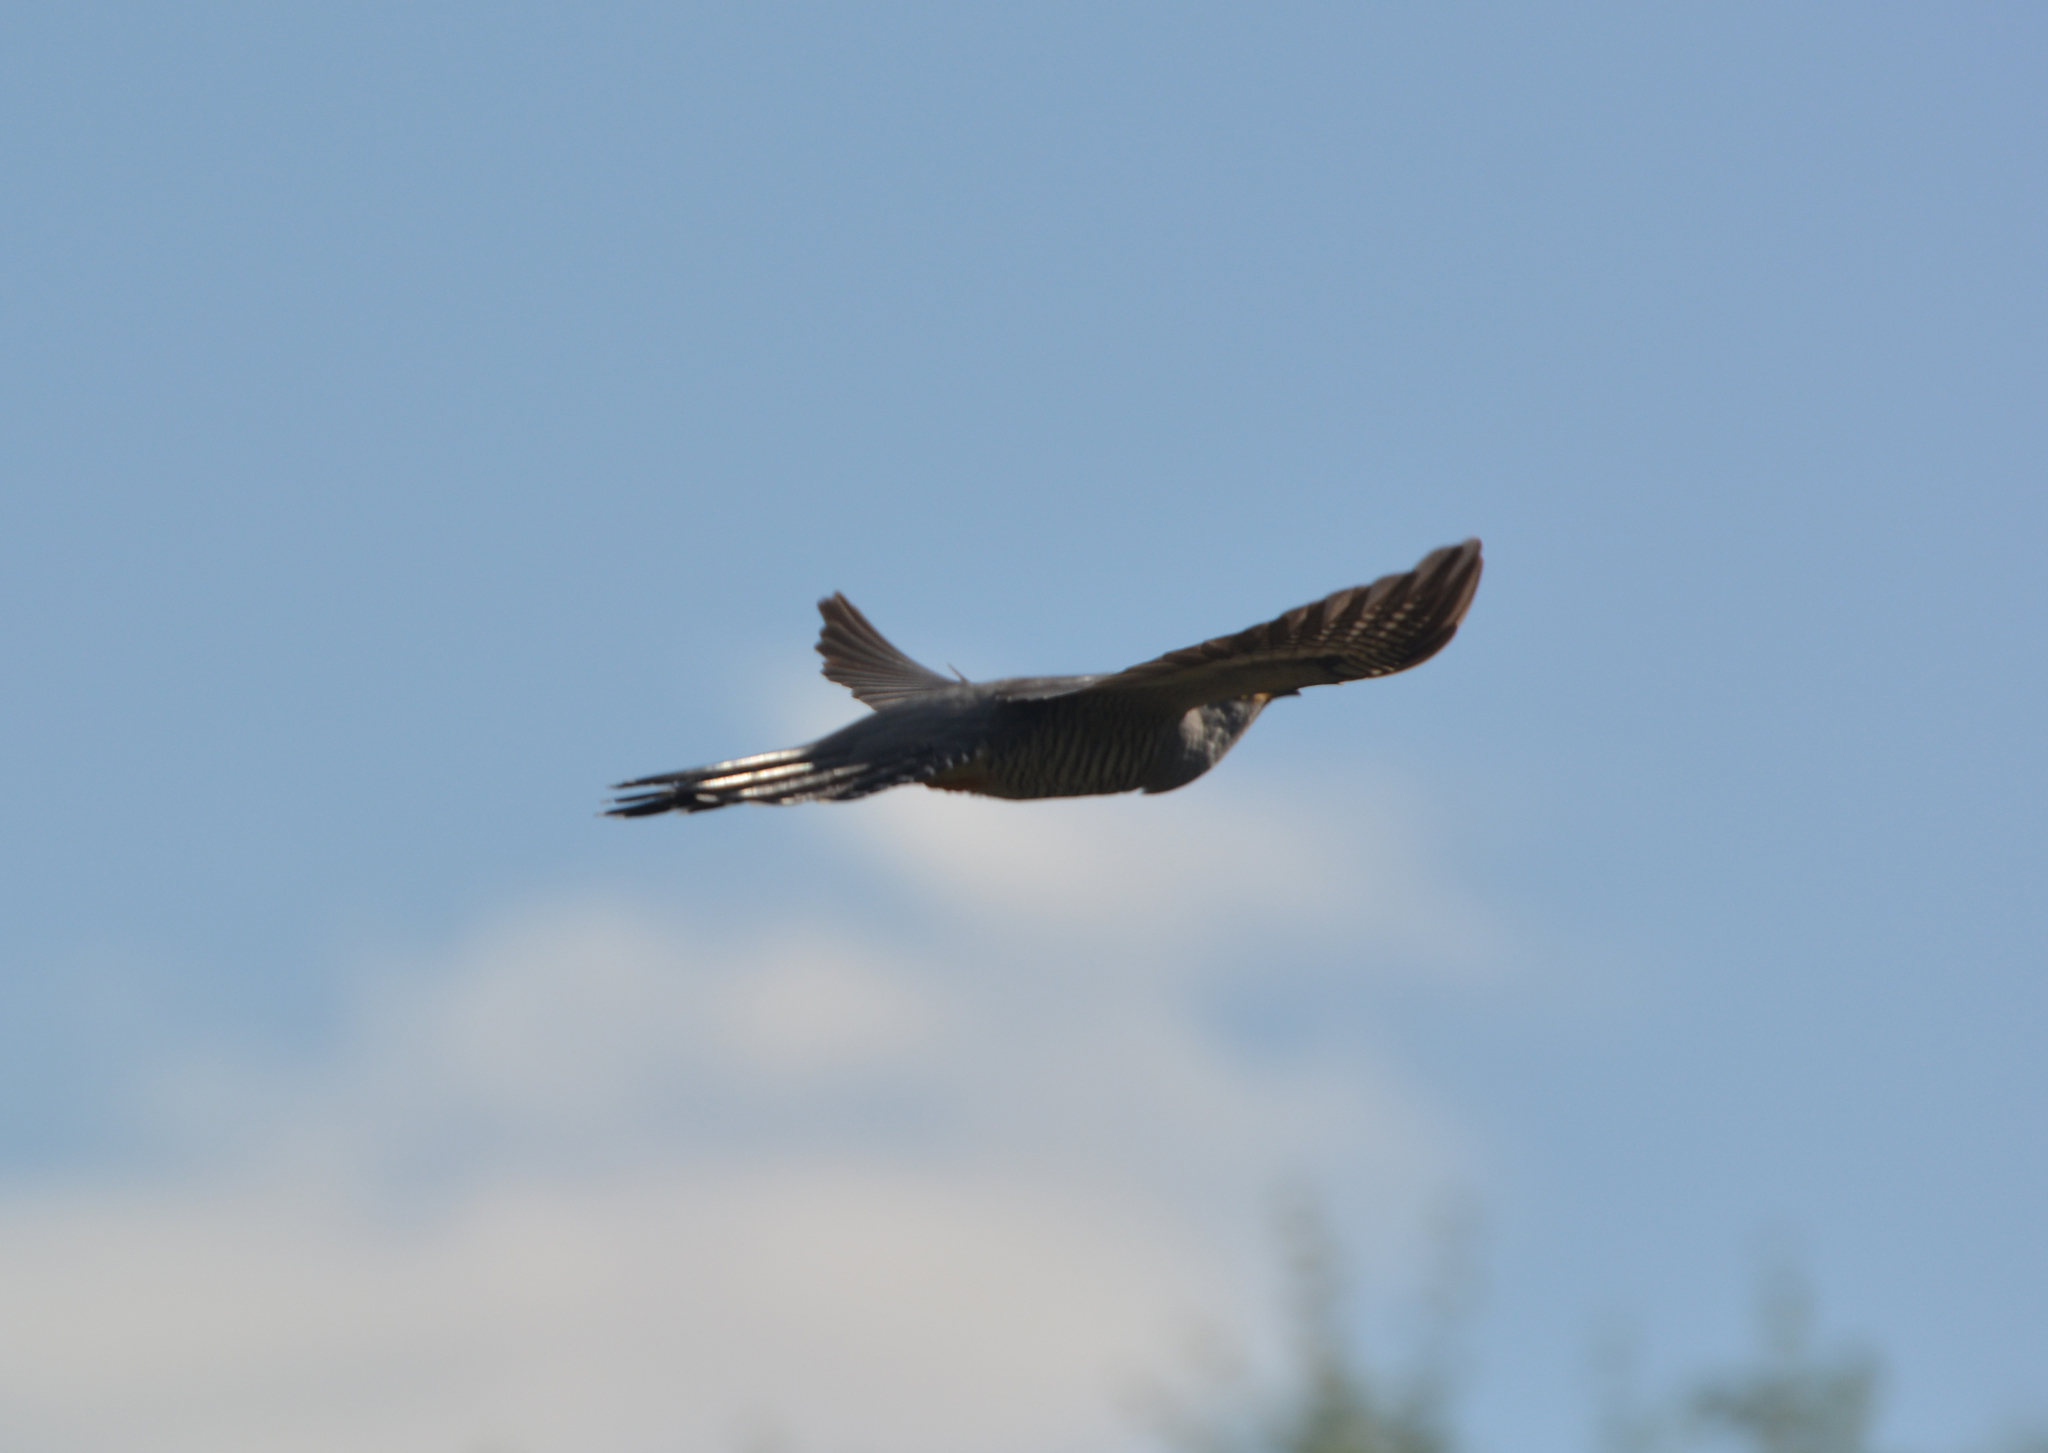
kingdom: Animalia
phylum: Chordata
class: Aves
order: Cuculiformes
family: Cuculidae
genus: Cuculus
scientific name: Cuculus canorus
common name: Common cuckoo
